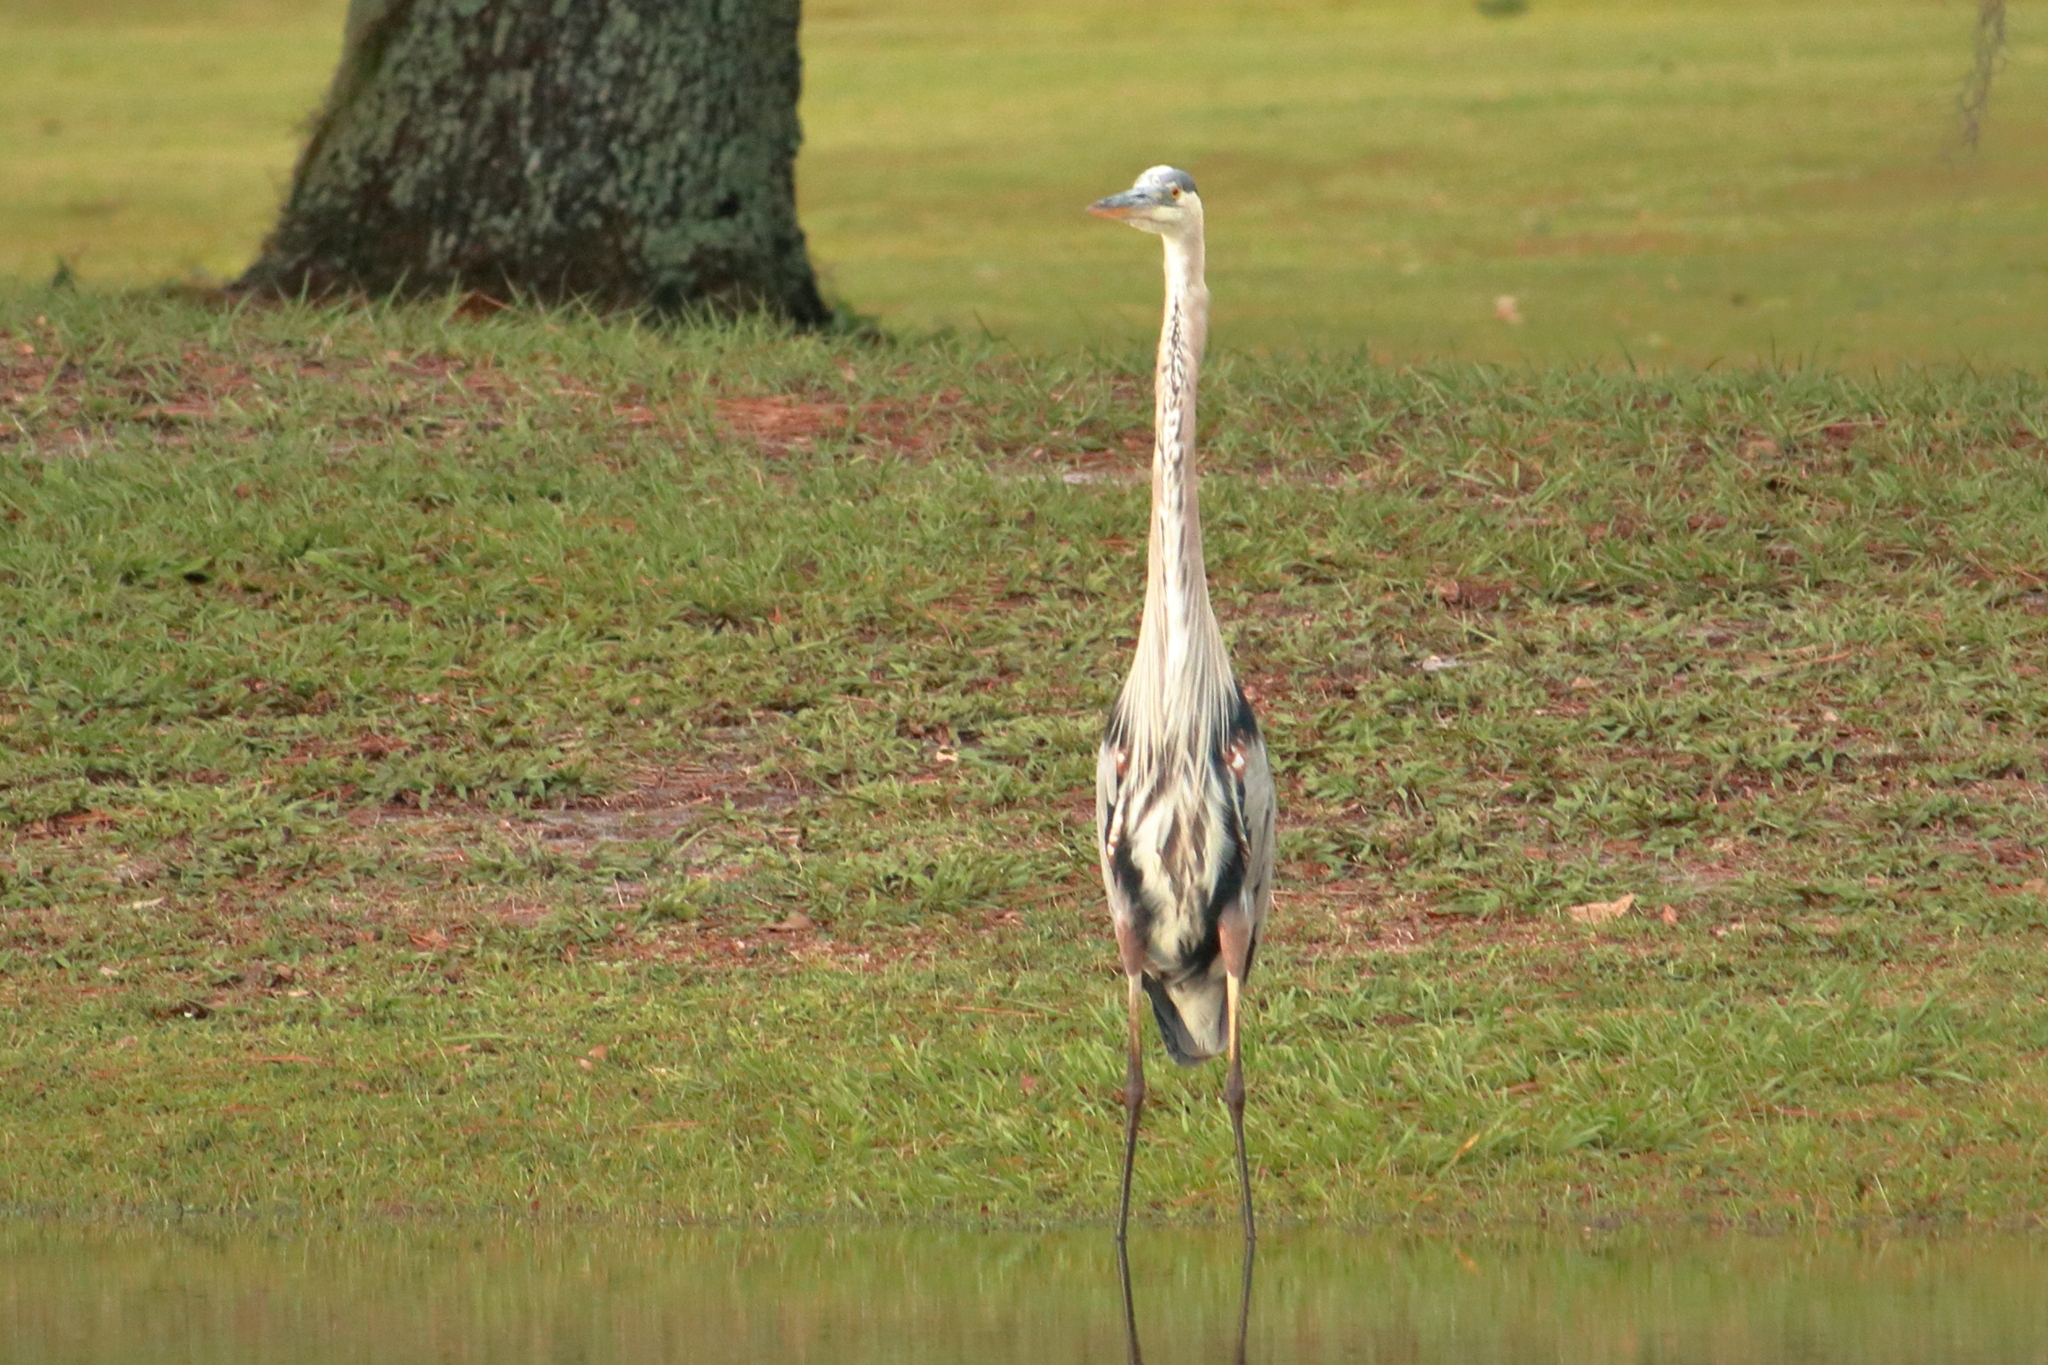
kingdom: Animalia
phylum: Chordata
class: Aves
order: Pelecaniformes
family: Ardeidae
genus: Ardea
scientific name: Ardea herodias
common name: Great blue heron
